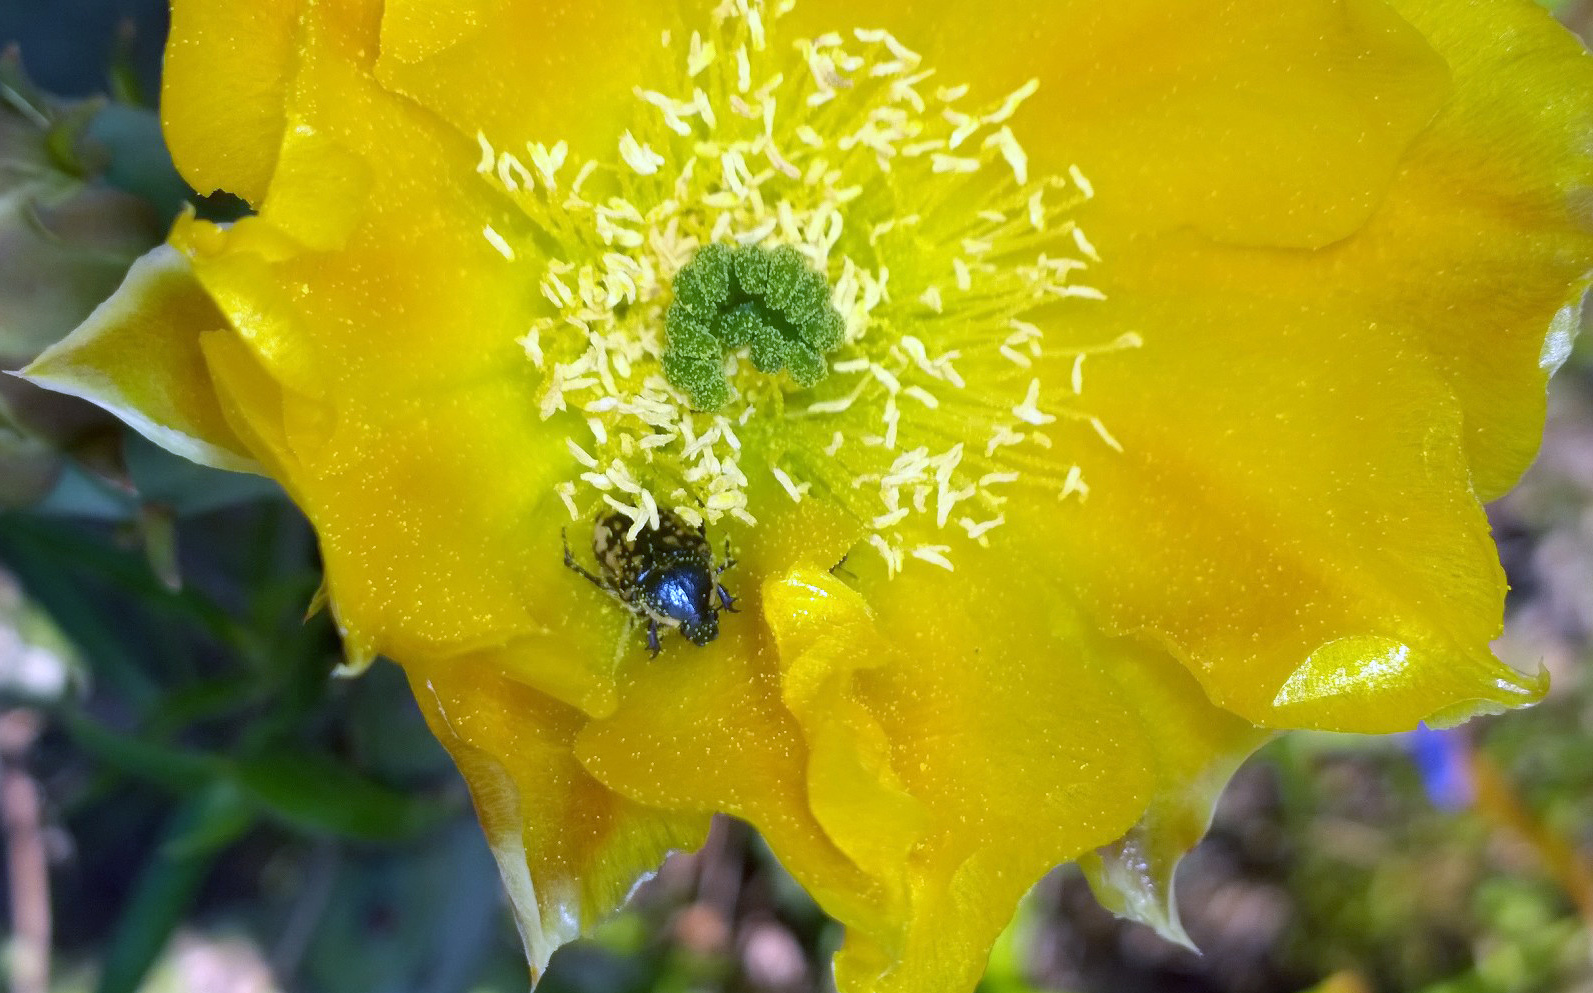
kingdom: Animalia
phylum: Arthropoda
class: Insecta
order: Coleoptera
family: Scarabaeidae
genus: Euphoria
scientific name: Euphoria kernii
